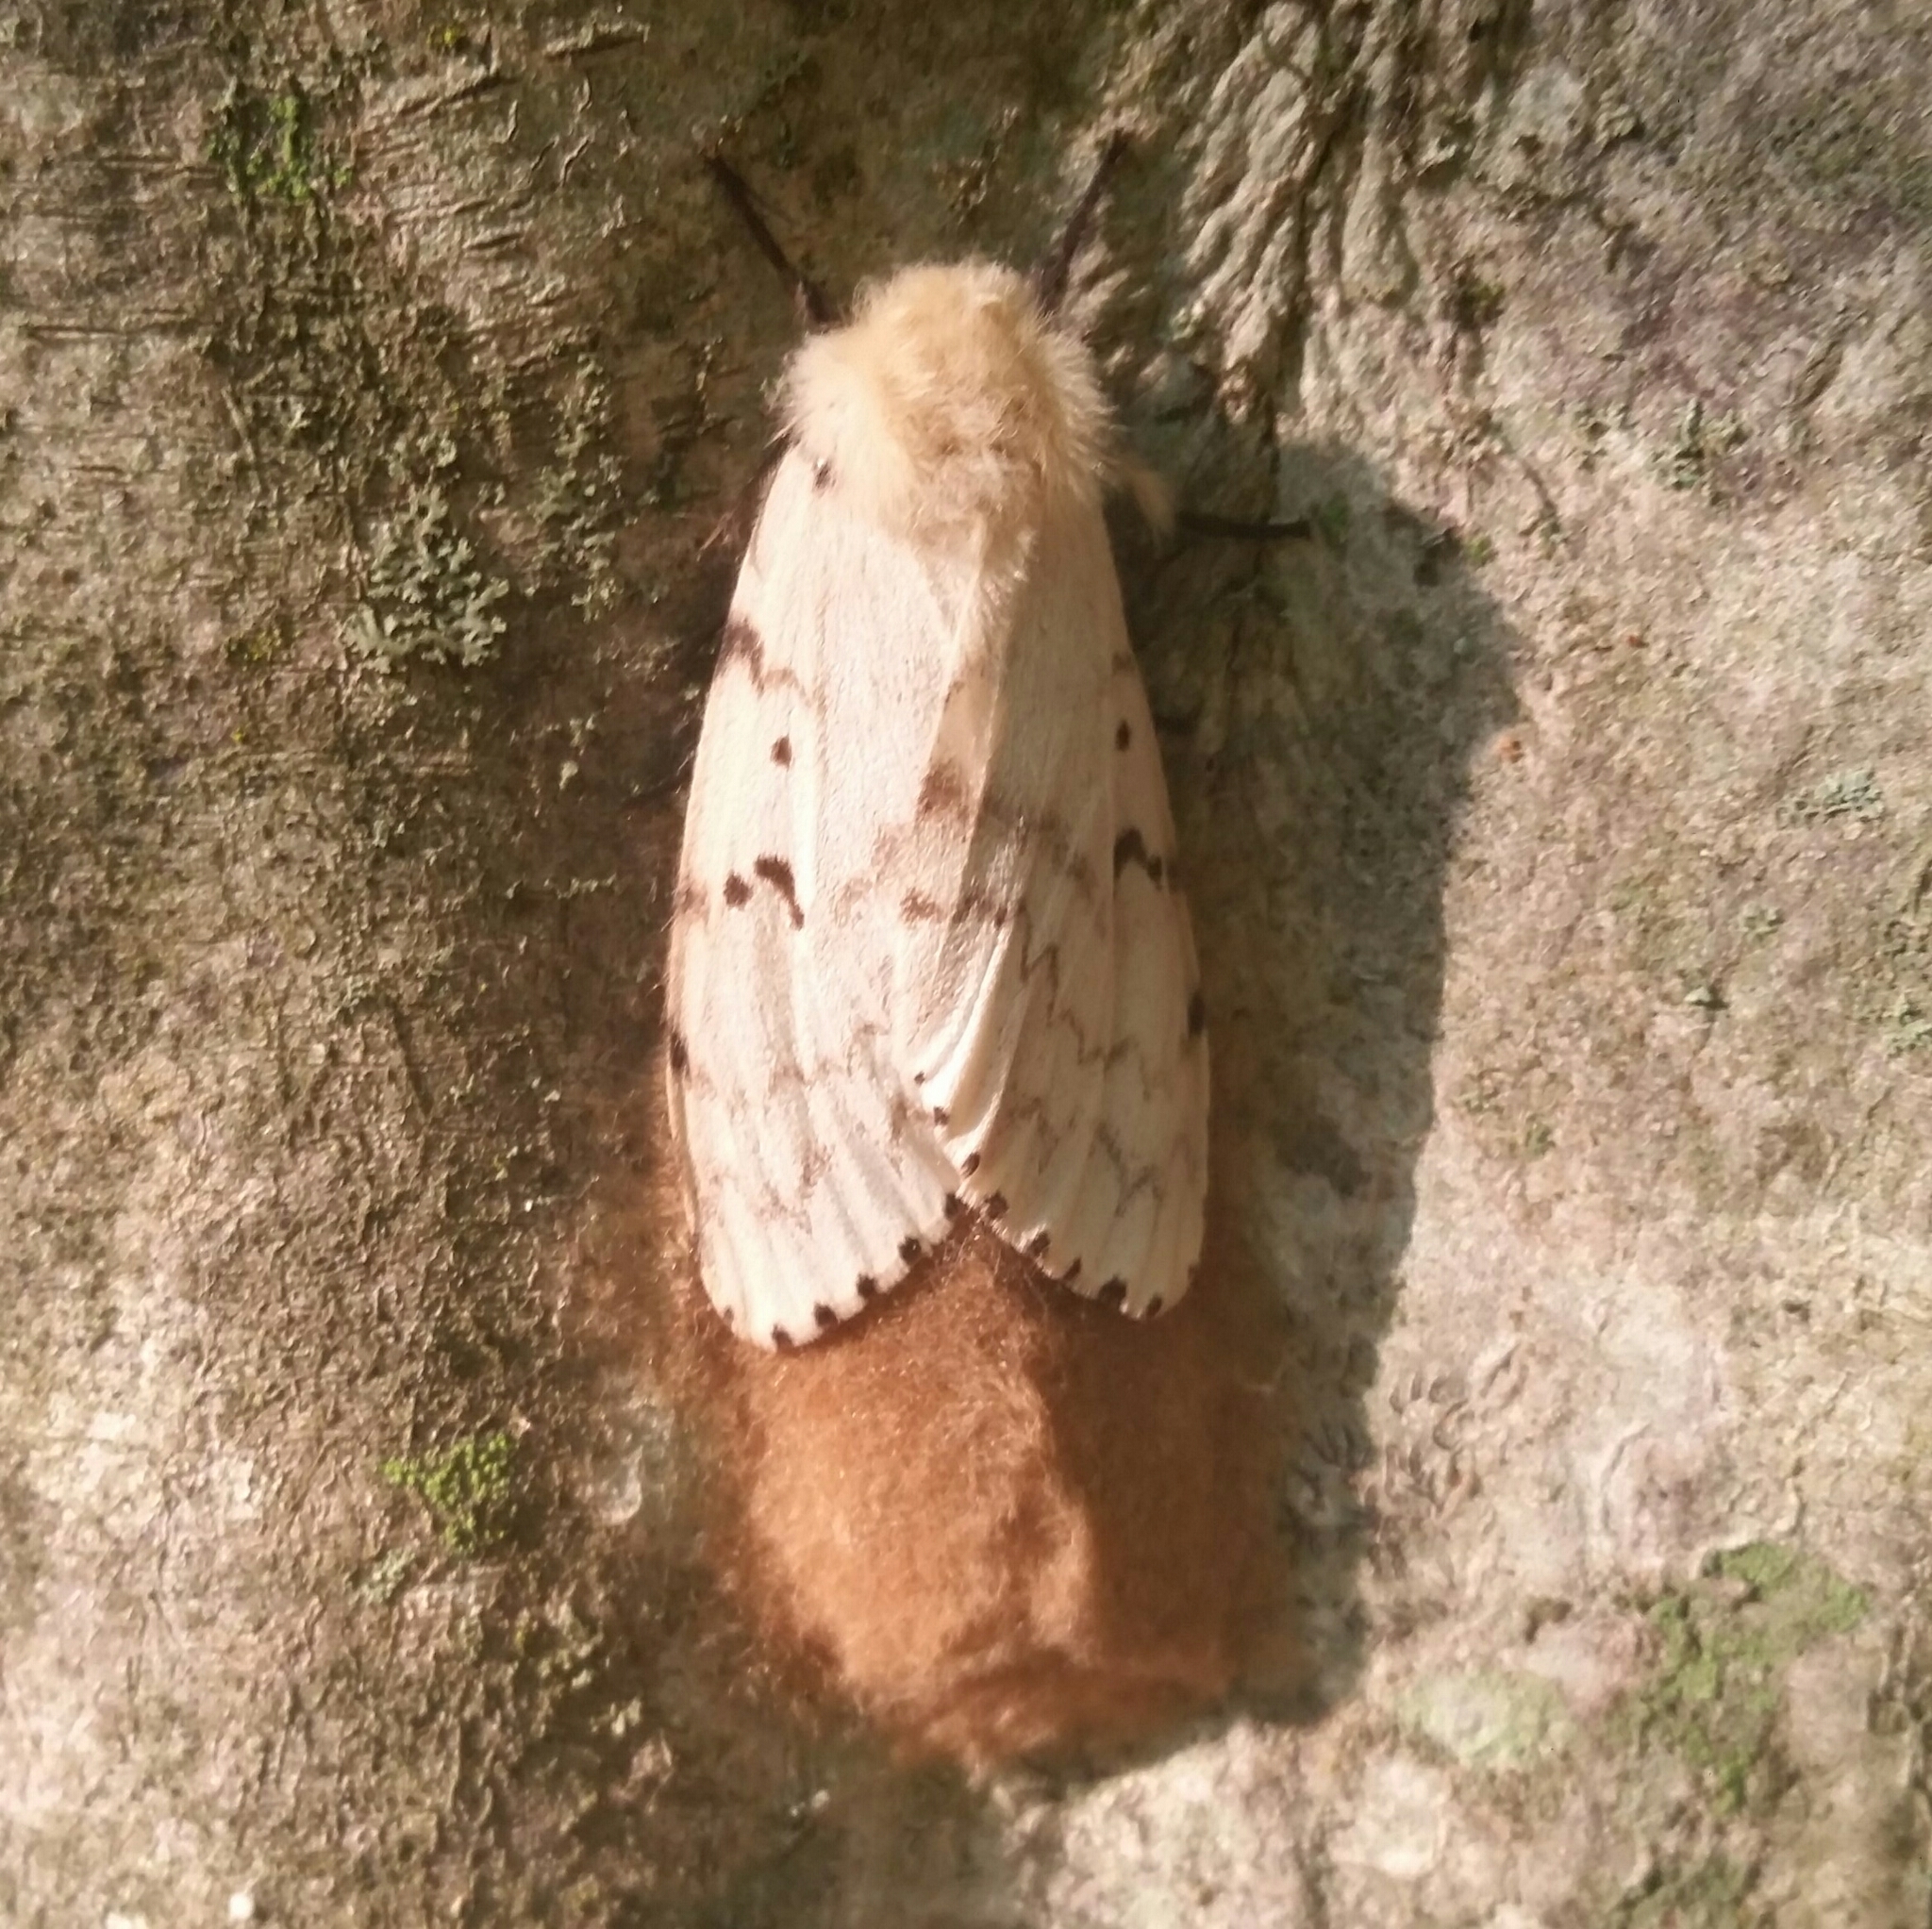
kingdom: Animalia
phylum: Arthropoda
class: Insecta
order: Lepidoptera
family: Erebidae
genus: Lymantria
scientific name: Lymantria dispar
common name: Gypsy moth
